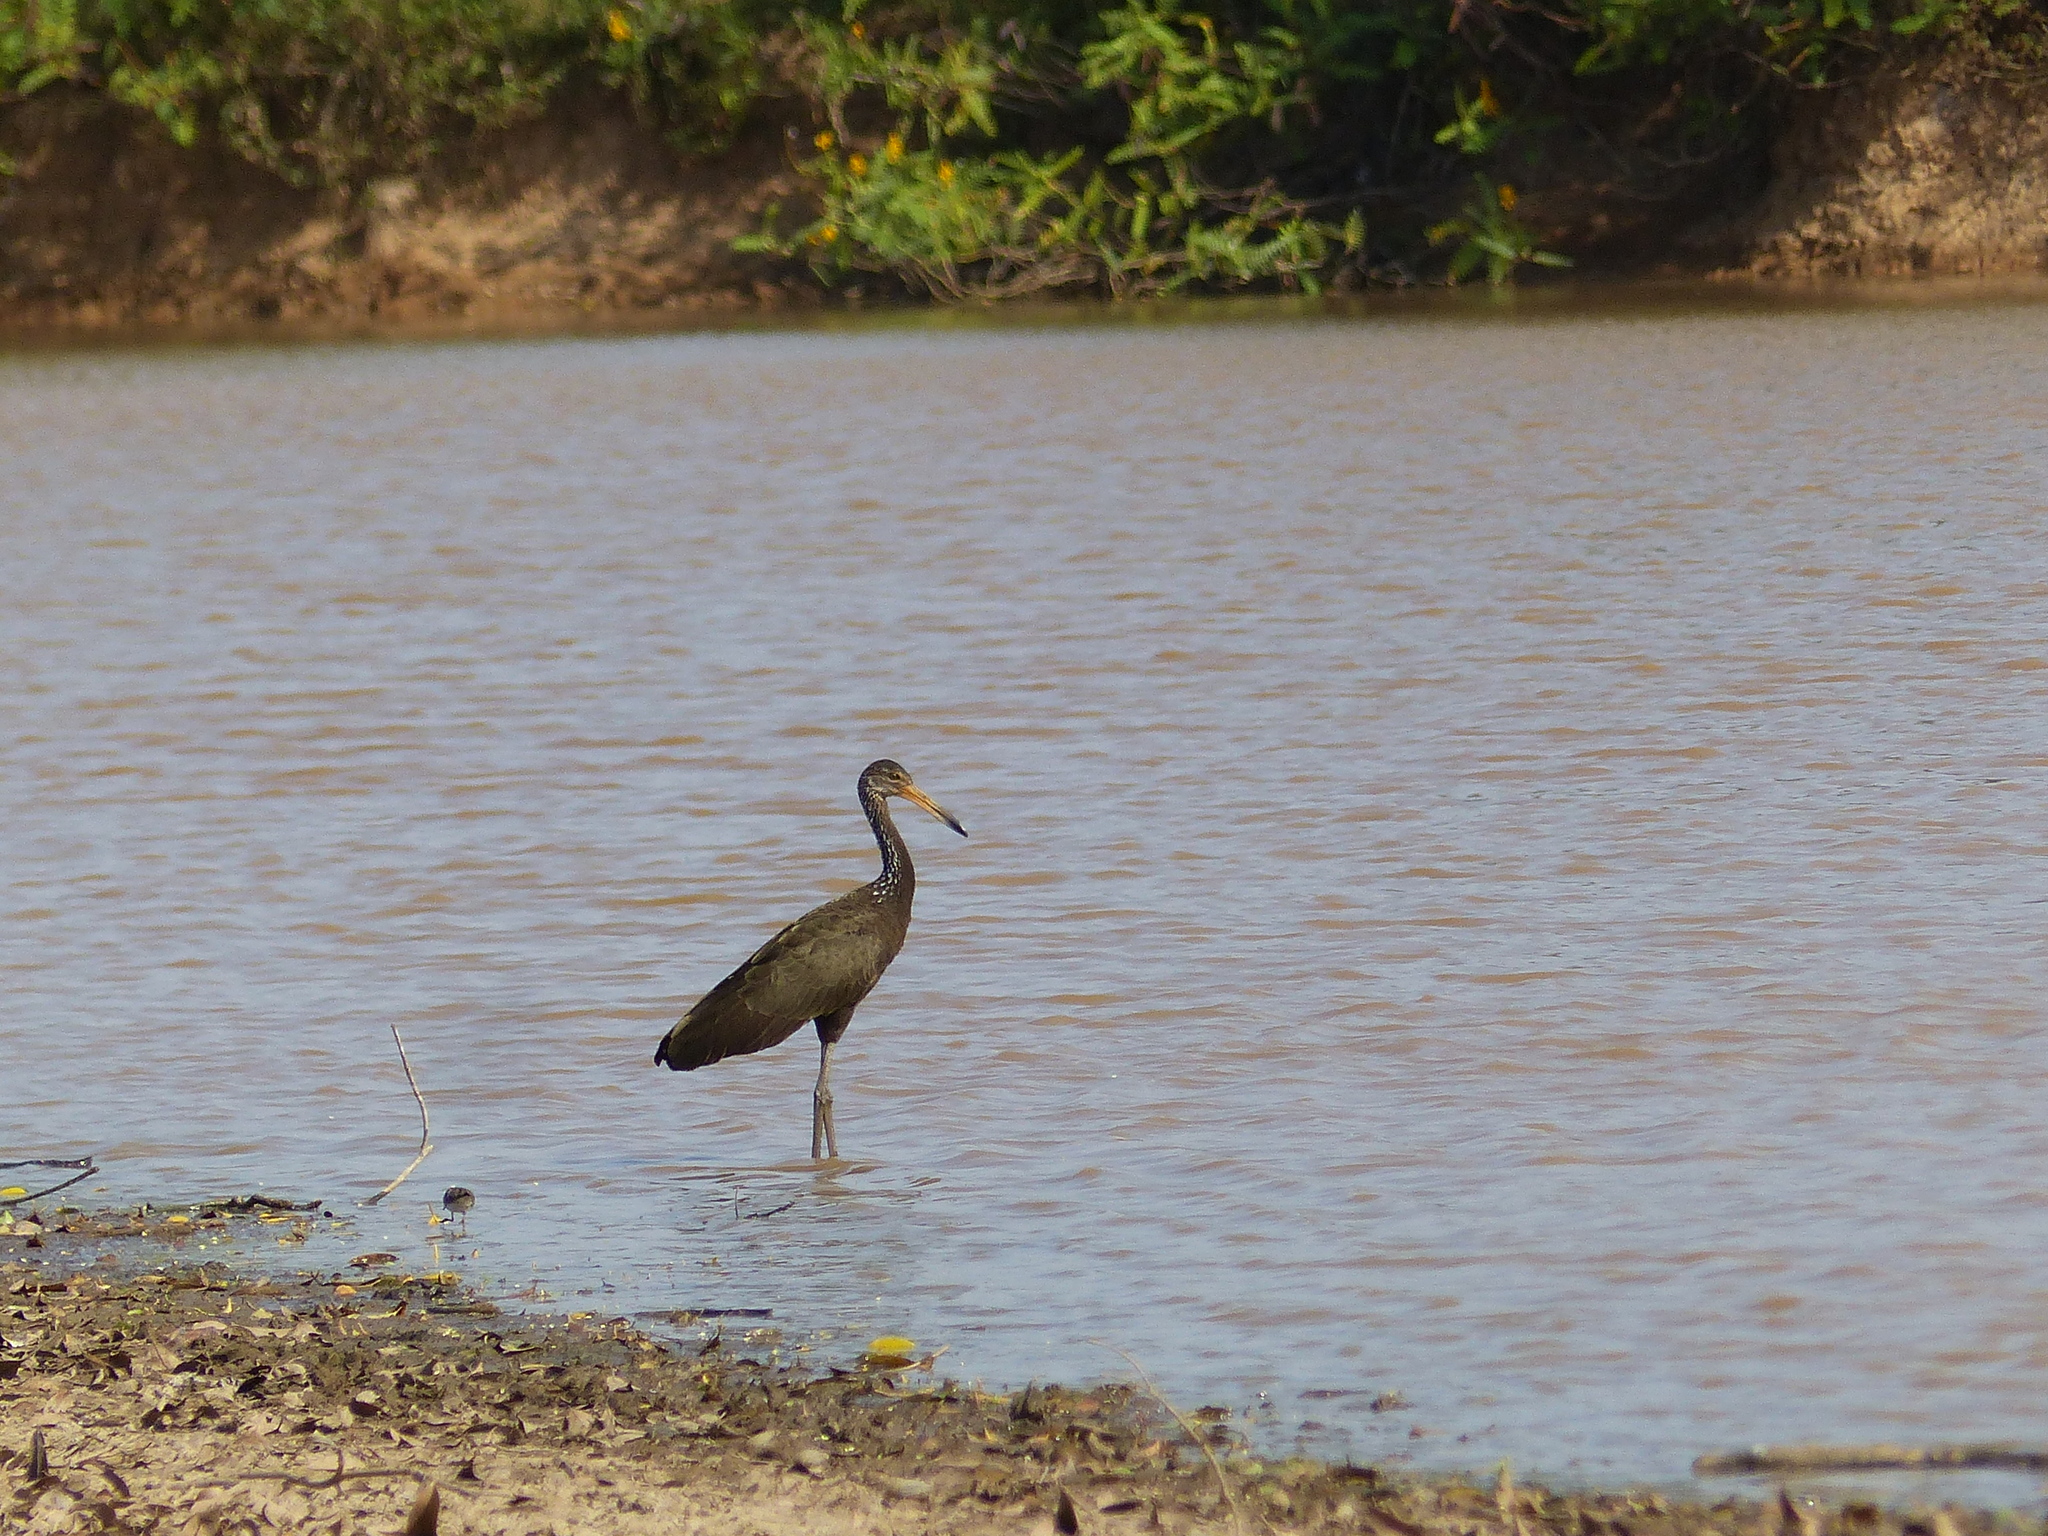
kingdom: Animalia
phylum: Chordata
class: Aves
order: Gruiformes
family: Aramidae
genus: Aramus
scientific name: Aramus guarauna
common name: Limpkin
